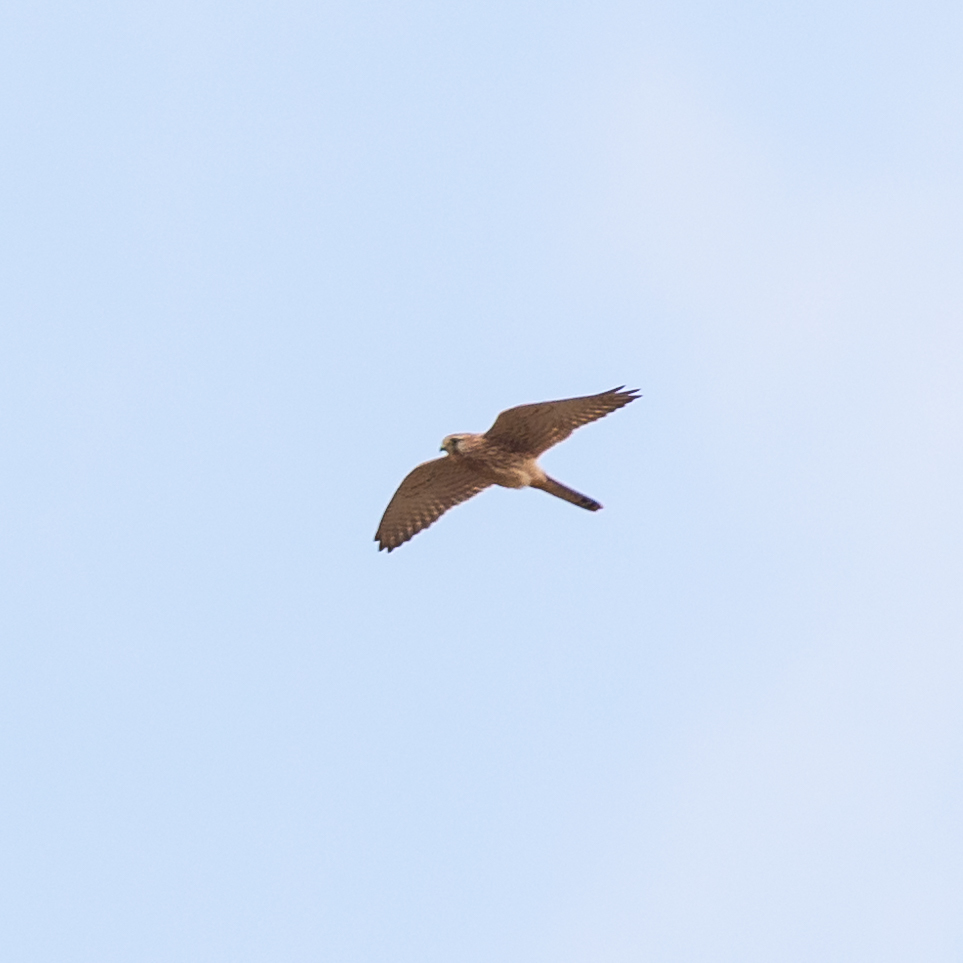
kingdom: Animalia
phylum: Chordata
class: Aves
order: Falconiformes
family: Falconidae
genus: Falco
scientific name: Falco tinnunculus
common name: Common kestrel
